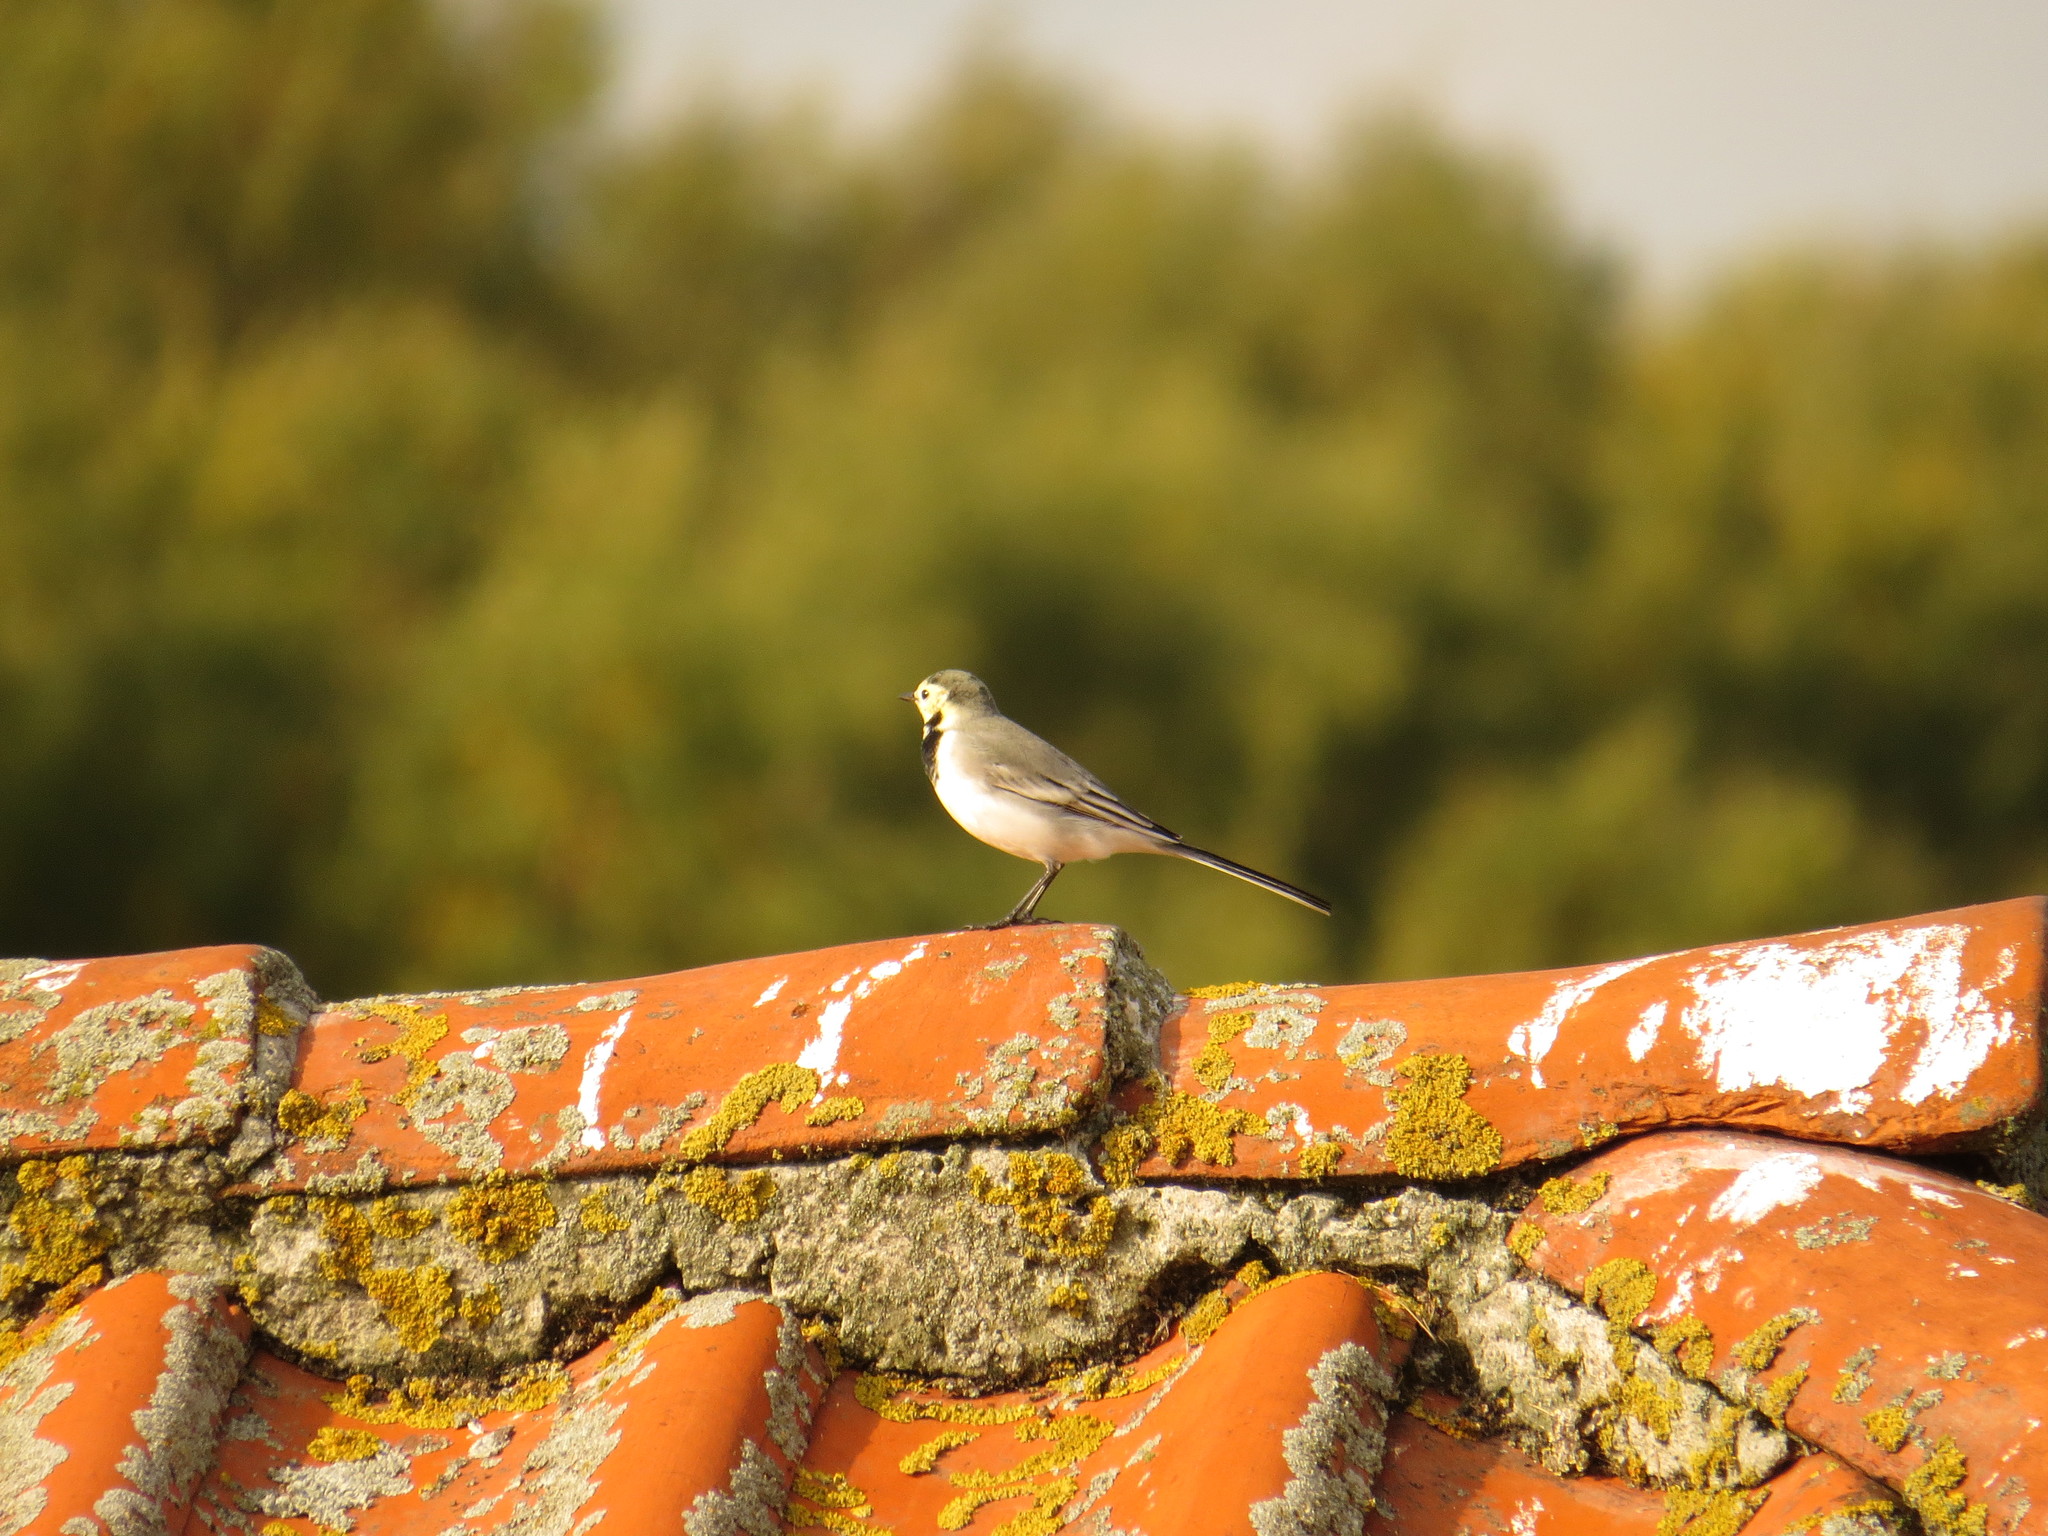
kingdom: Animalia
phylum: Chordata
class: Aves
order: Passeriformes
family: Motacillidae
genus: Motacilla
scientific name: Motacilla alba
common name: White wagtail
